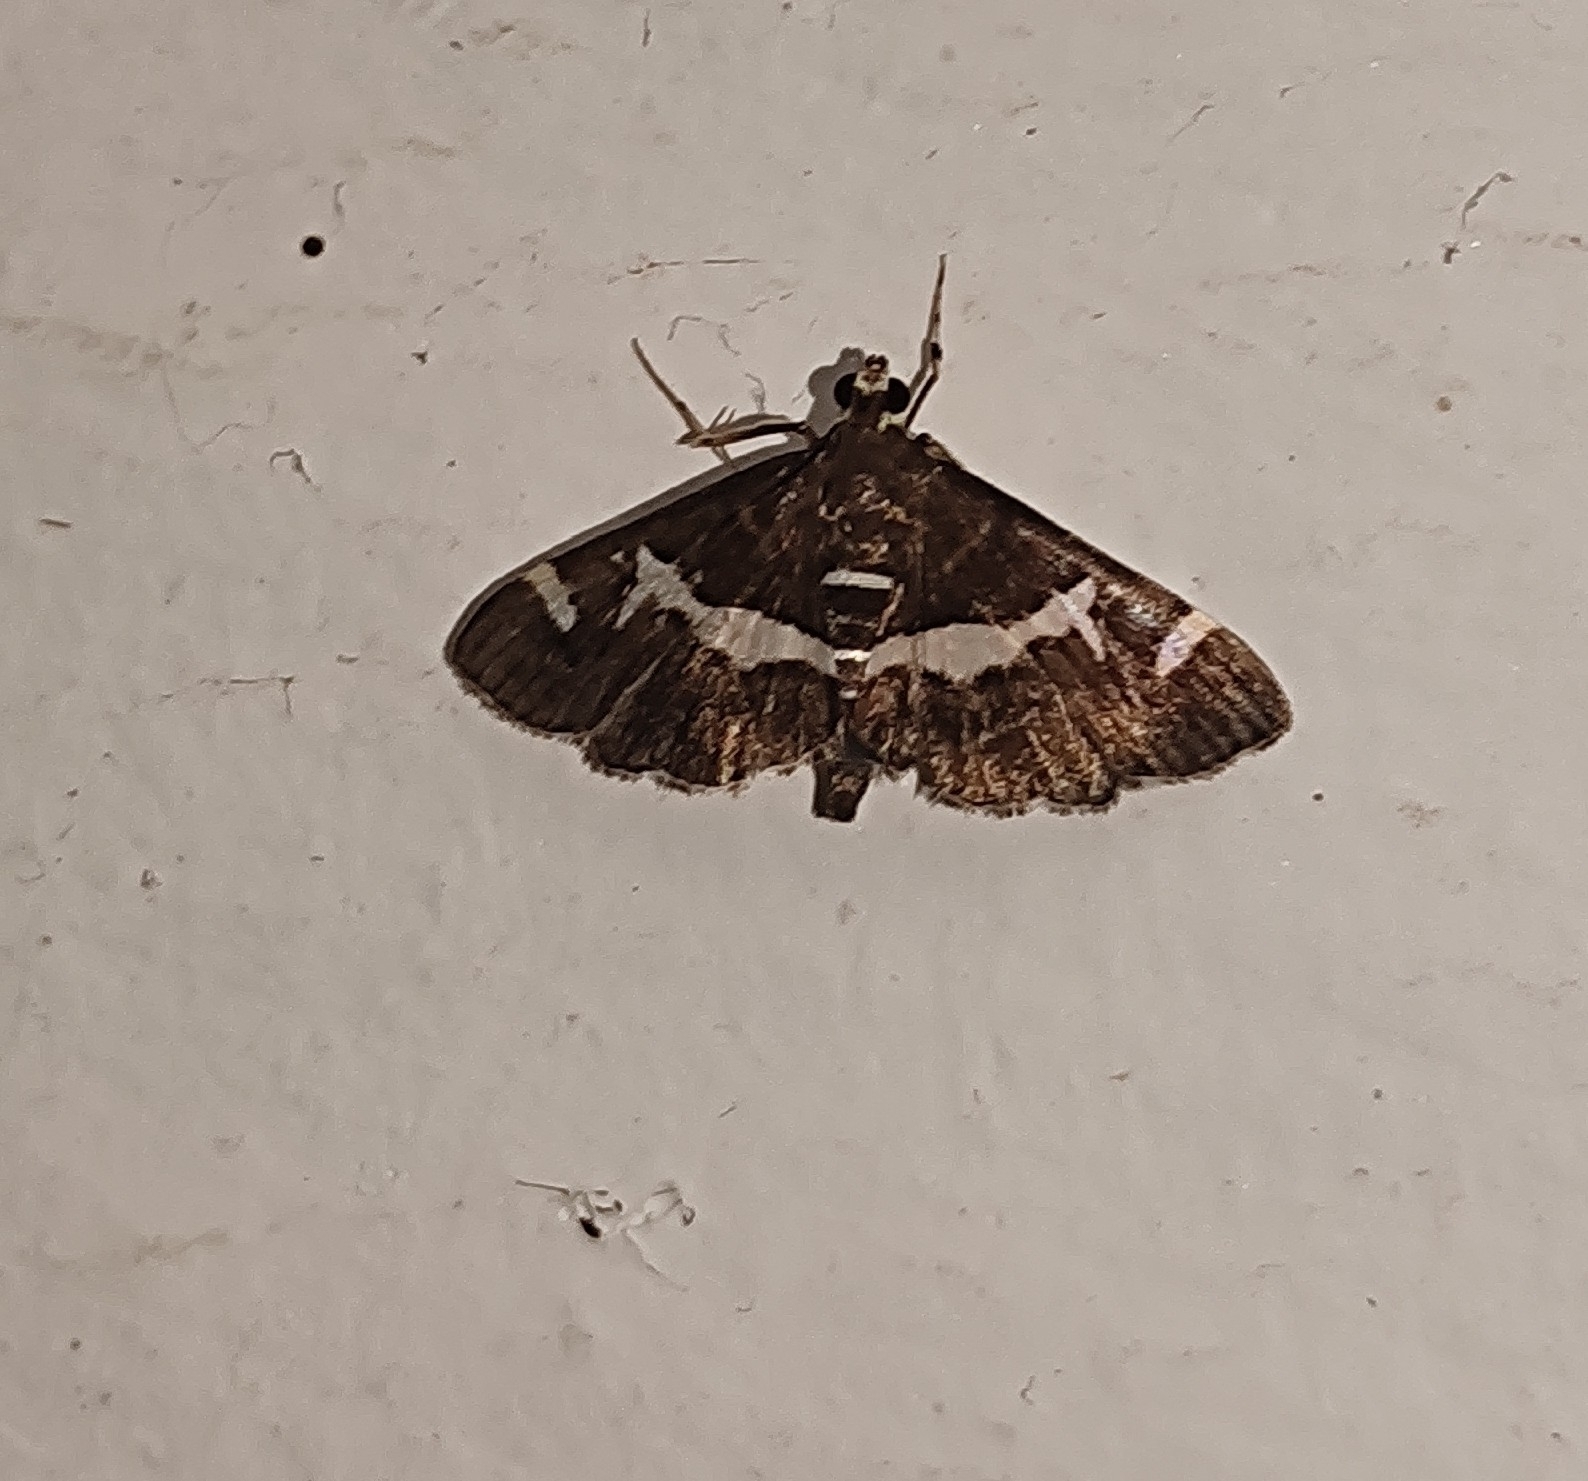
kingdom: Animalia
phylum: Arthropoda
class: Insecta
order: Lepidoptera
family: Crambidae
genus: Spoladea
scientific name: Spoladea recurvalis
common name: Beet webworm moth
